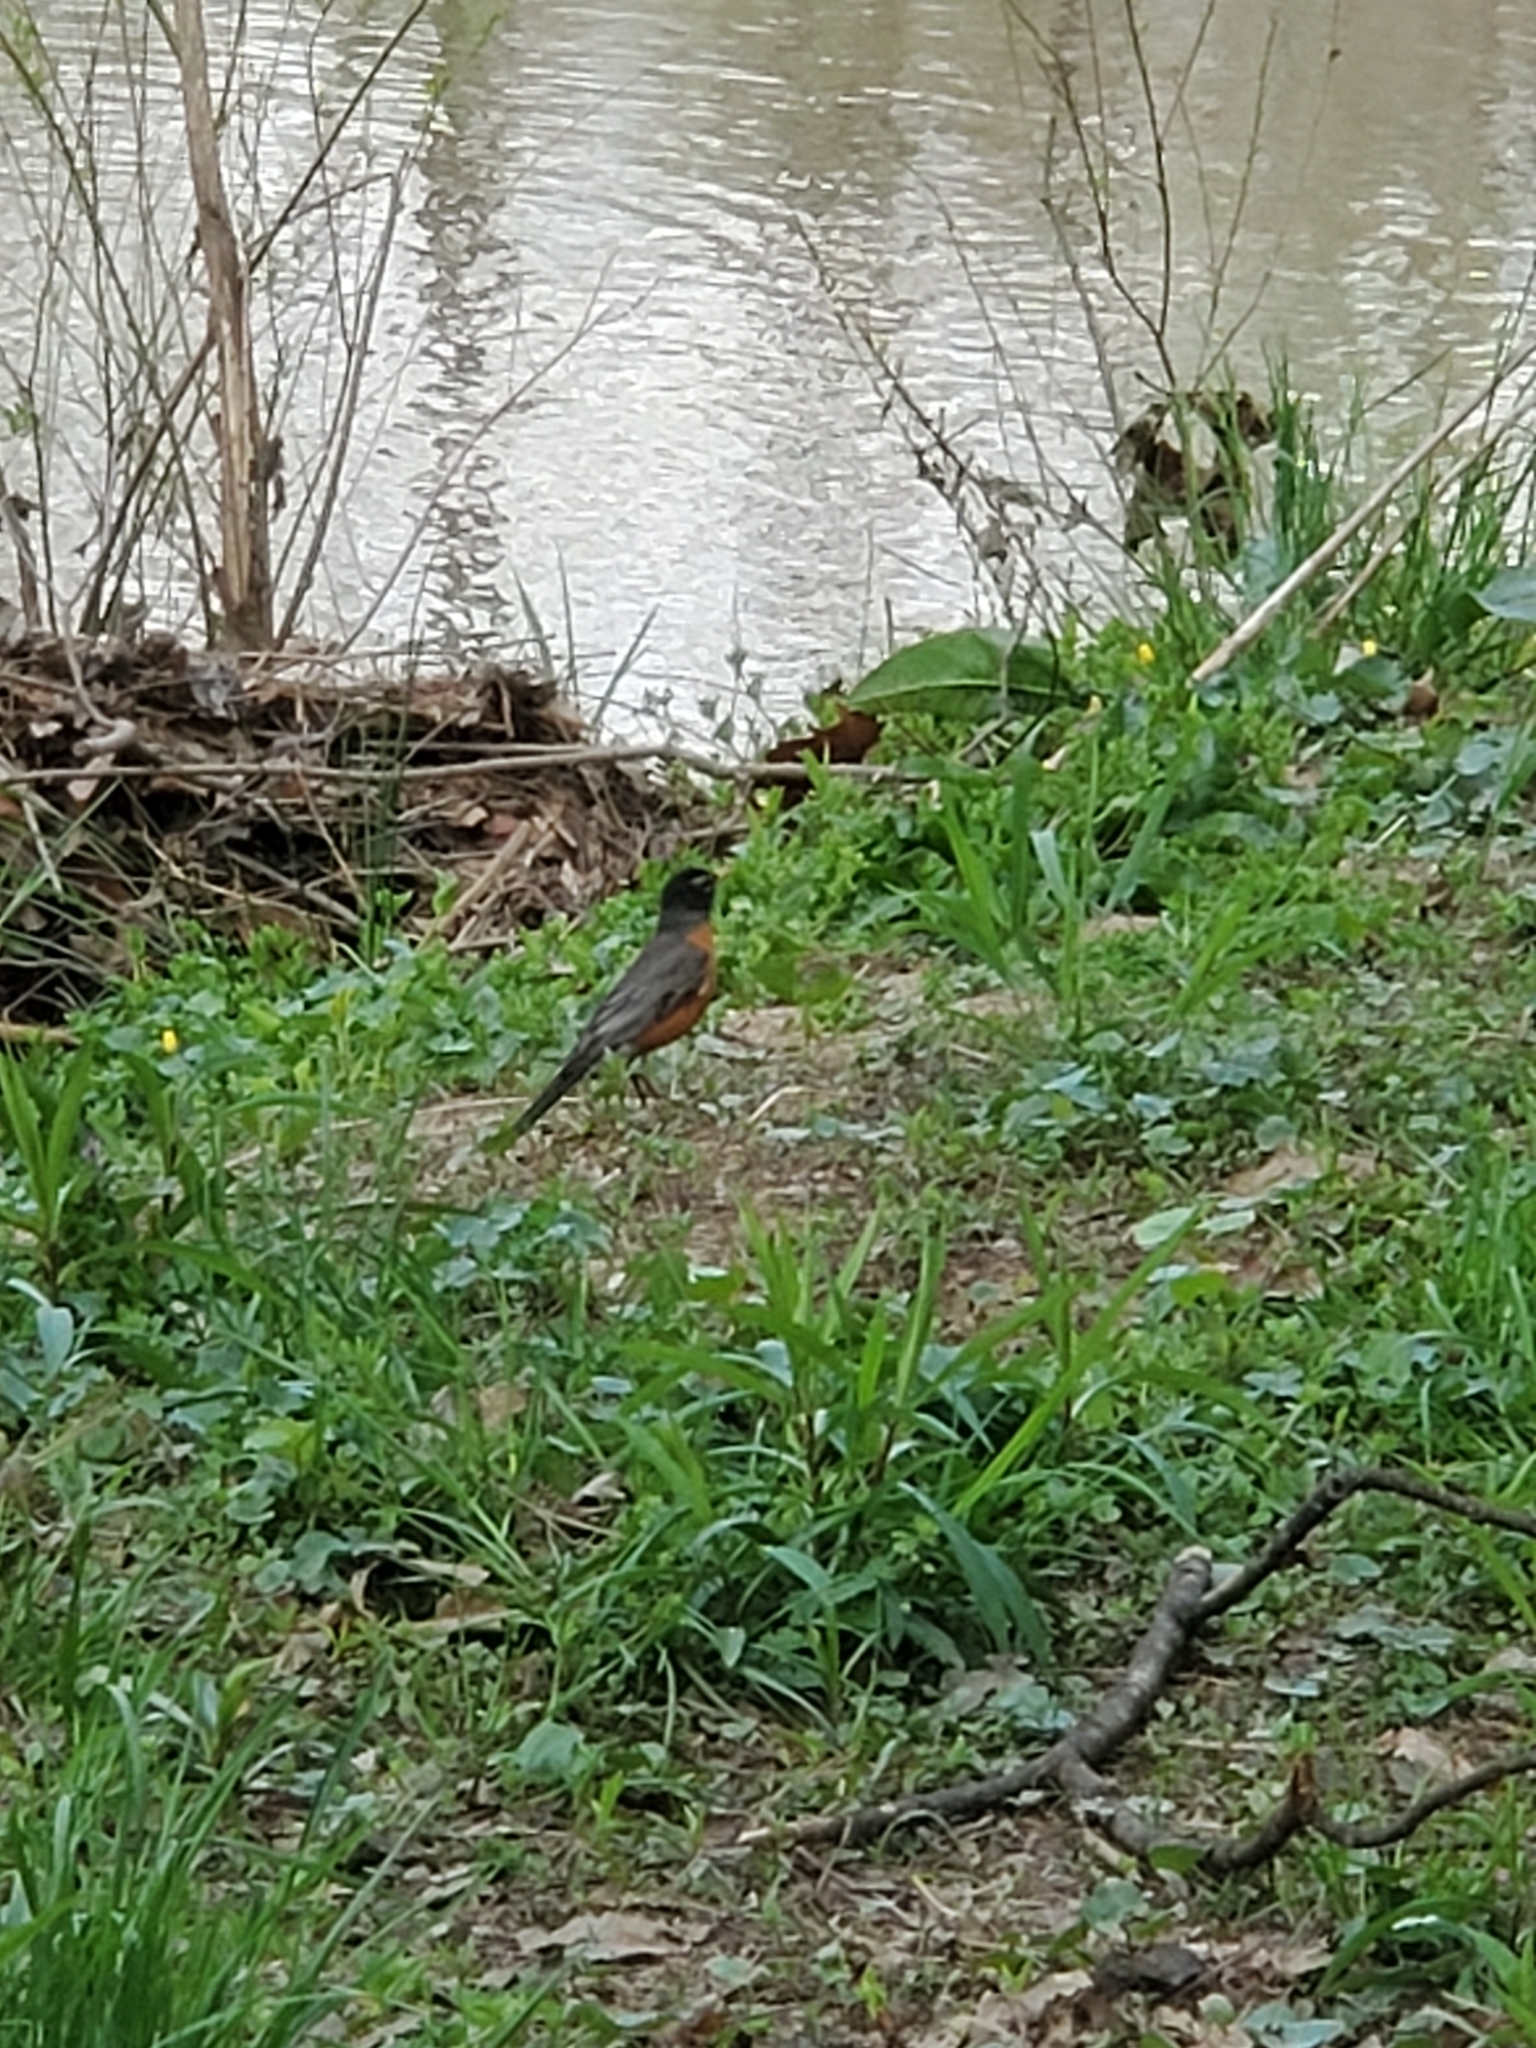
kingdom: Animalia
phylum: Chordata
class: Aves
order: Passeriformes
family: Turdidae
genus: Turdus
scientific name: Turdus migratorius
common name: American robin
